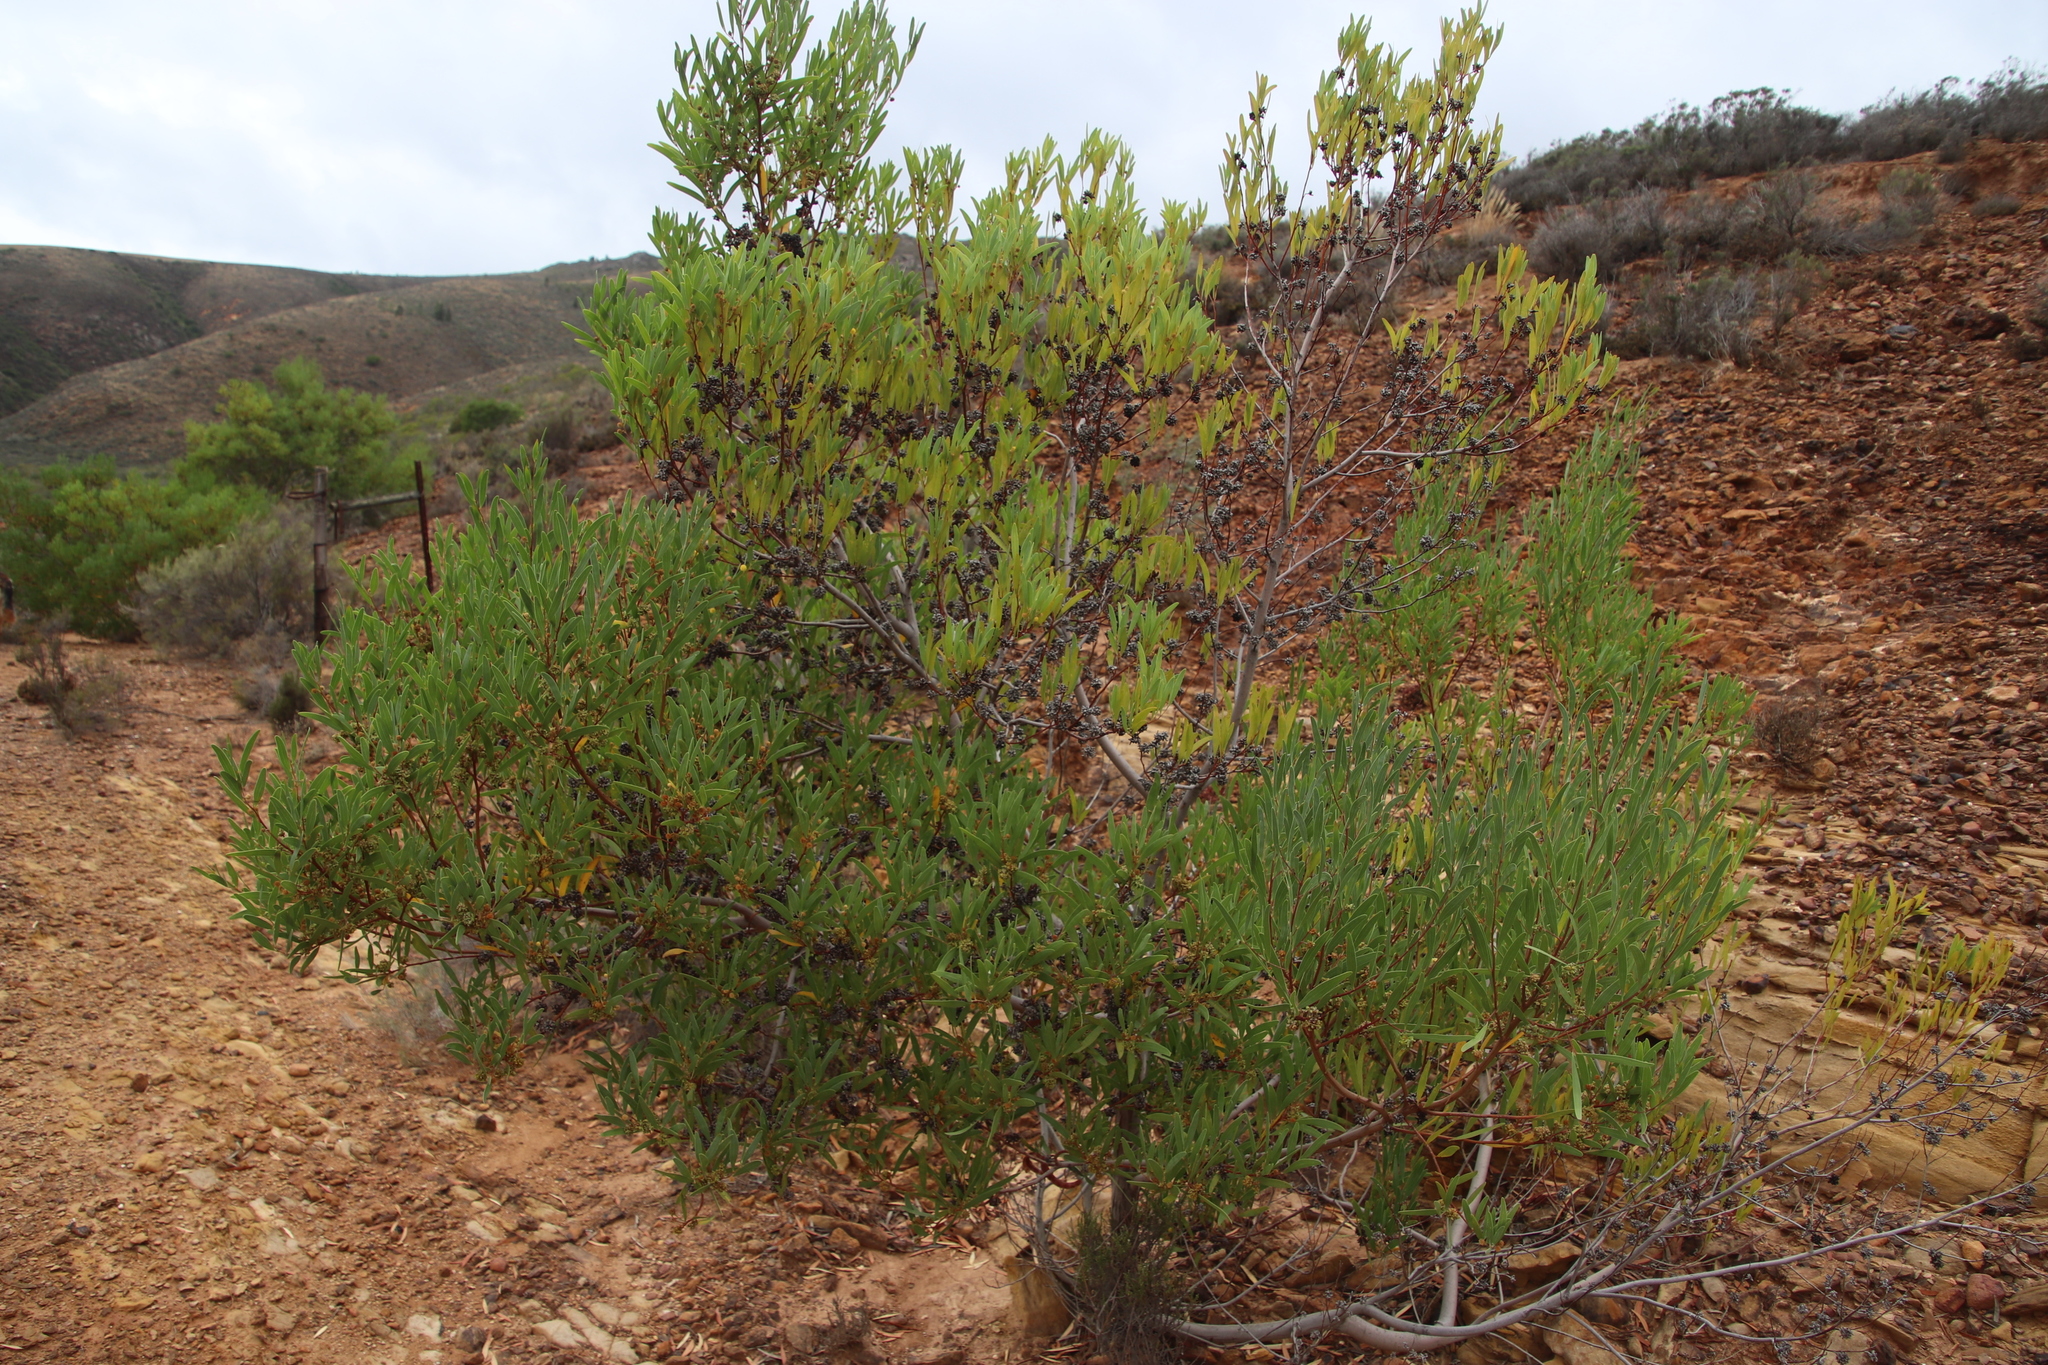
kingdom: Animalia
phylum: Arthropoda
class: Insecta
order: Diptera
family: Cecidomyiidae
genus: Dasineura
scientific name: Dasineura dielsi
